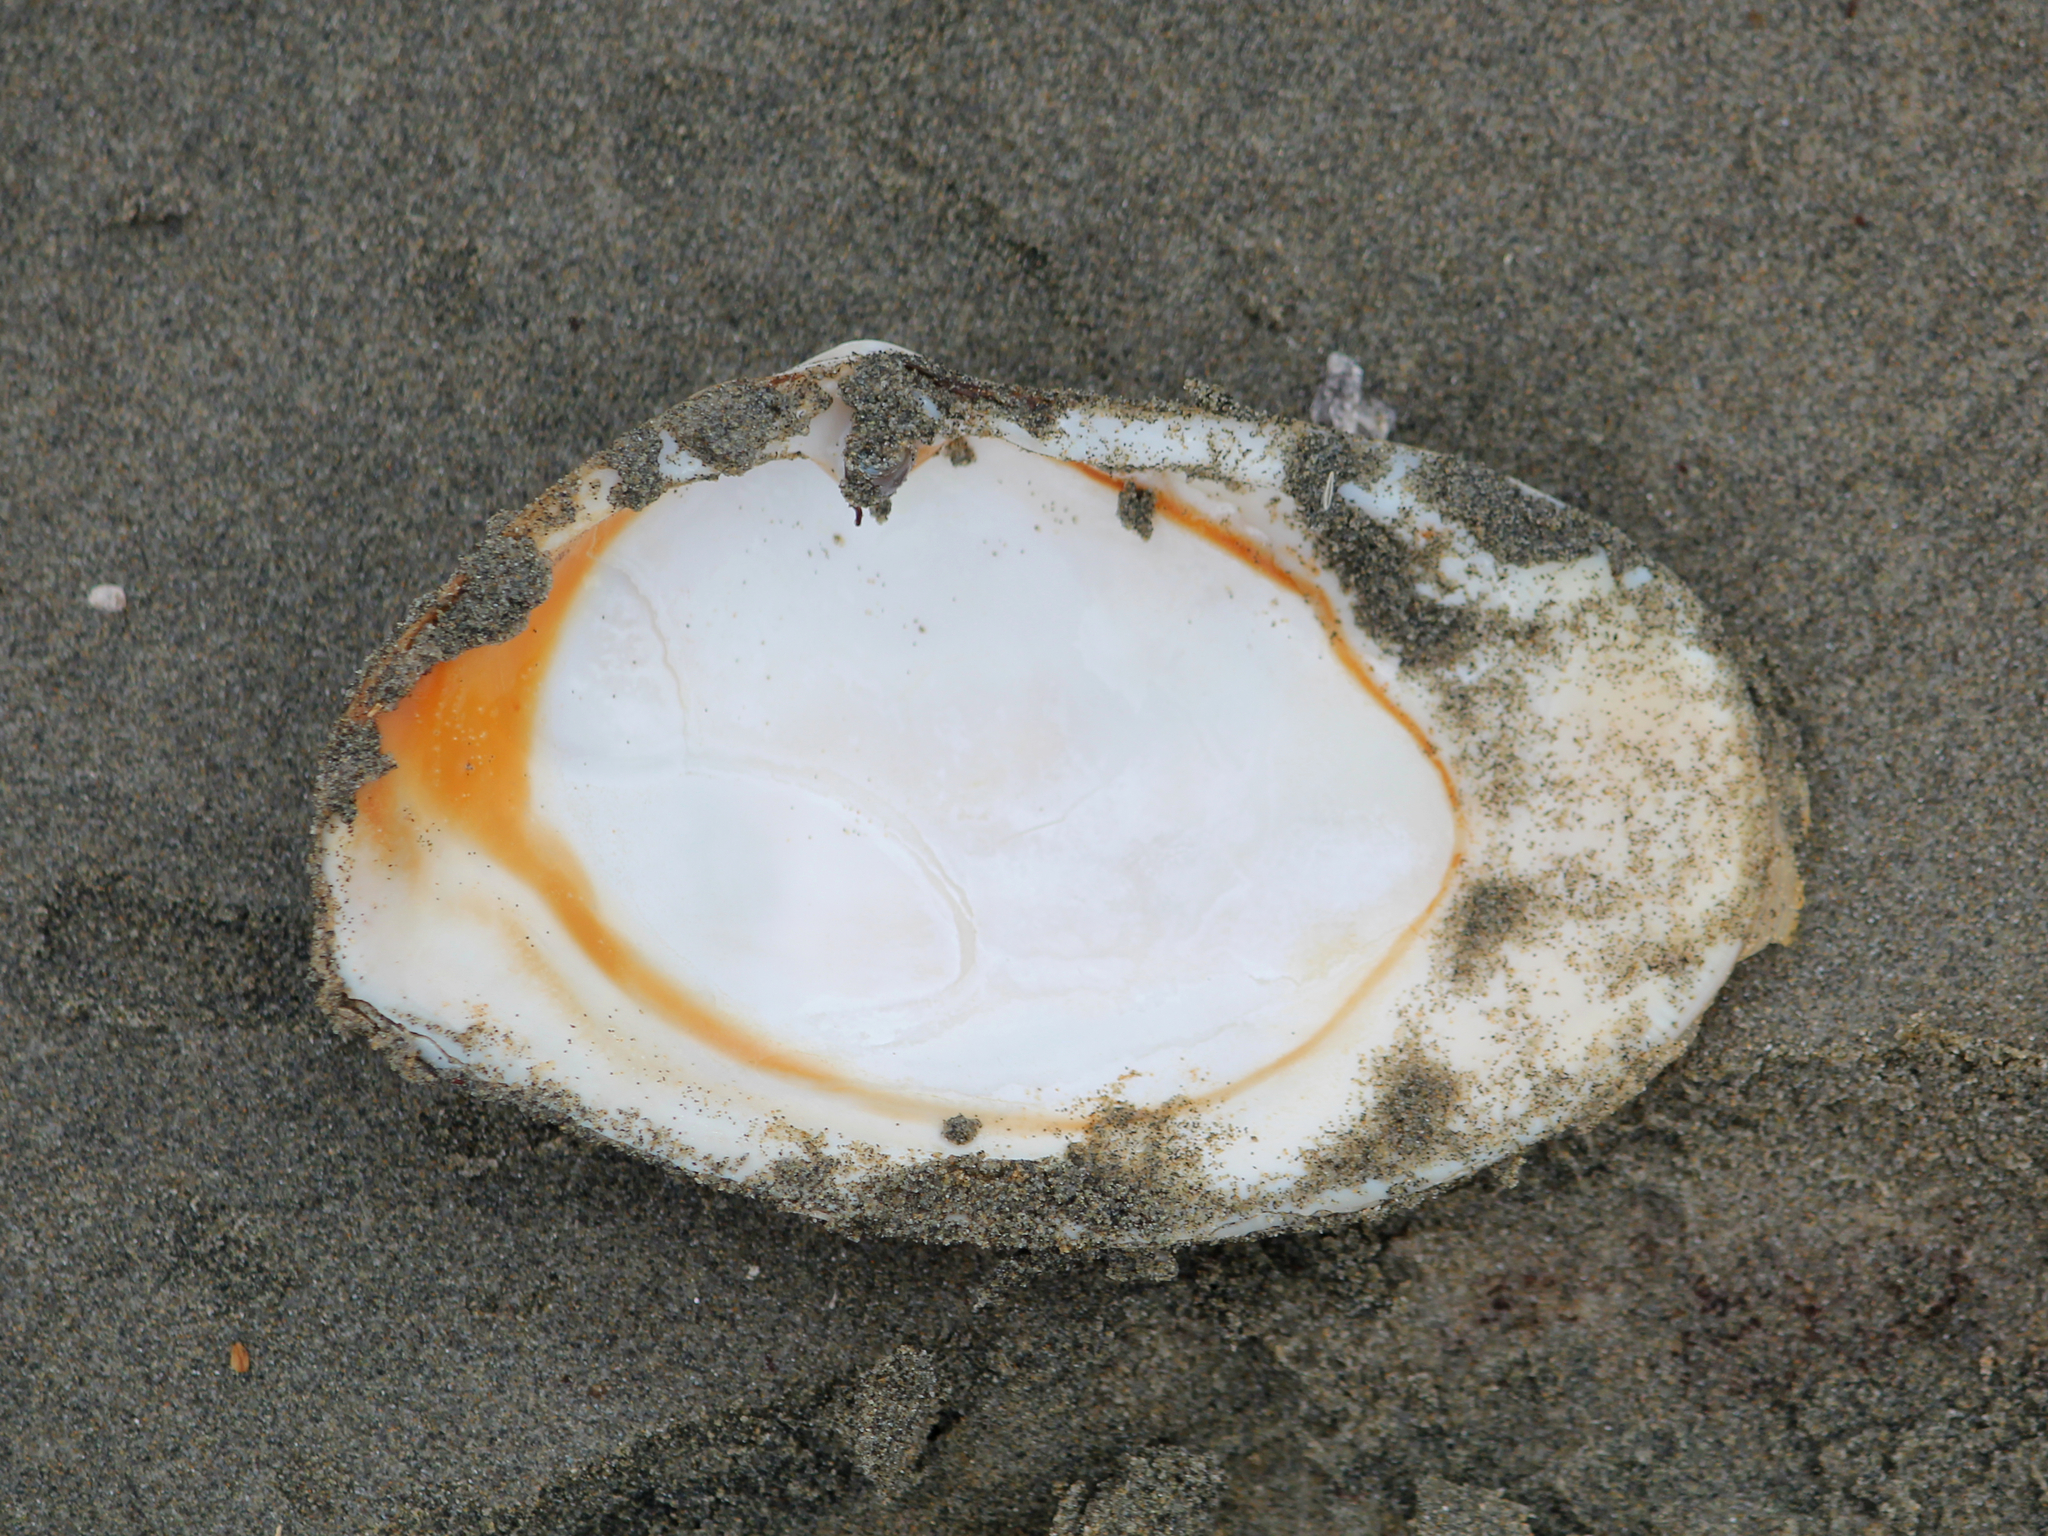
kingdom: Animalia
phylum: Mollusca
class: Bivalvia
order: Venerida
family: Mesodesmatidae
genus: Paphies
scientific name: Paphies ventricosa
